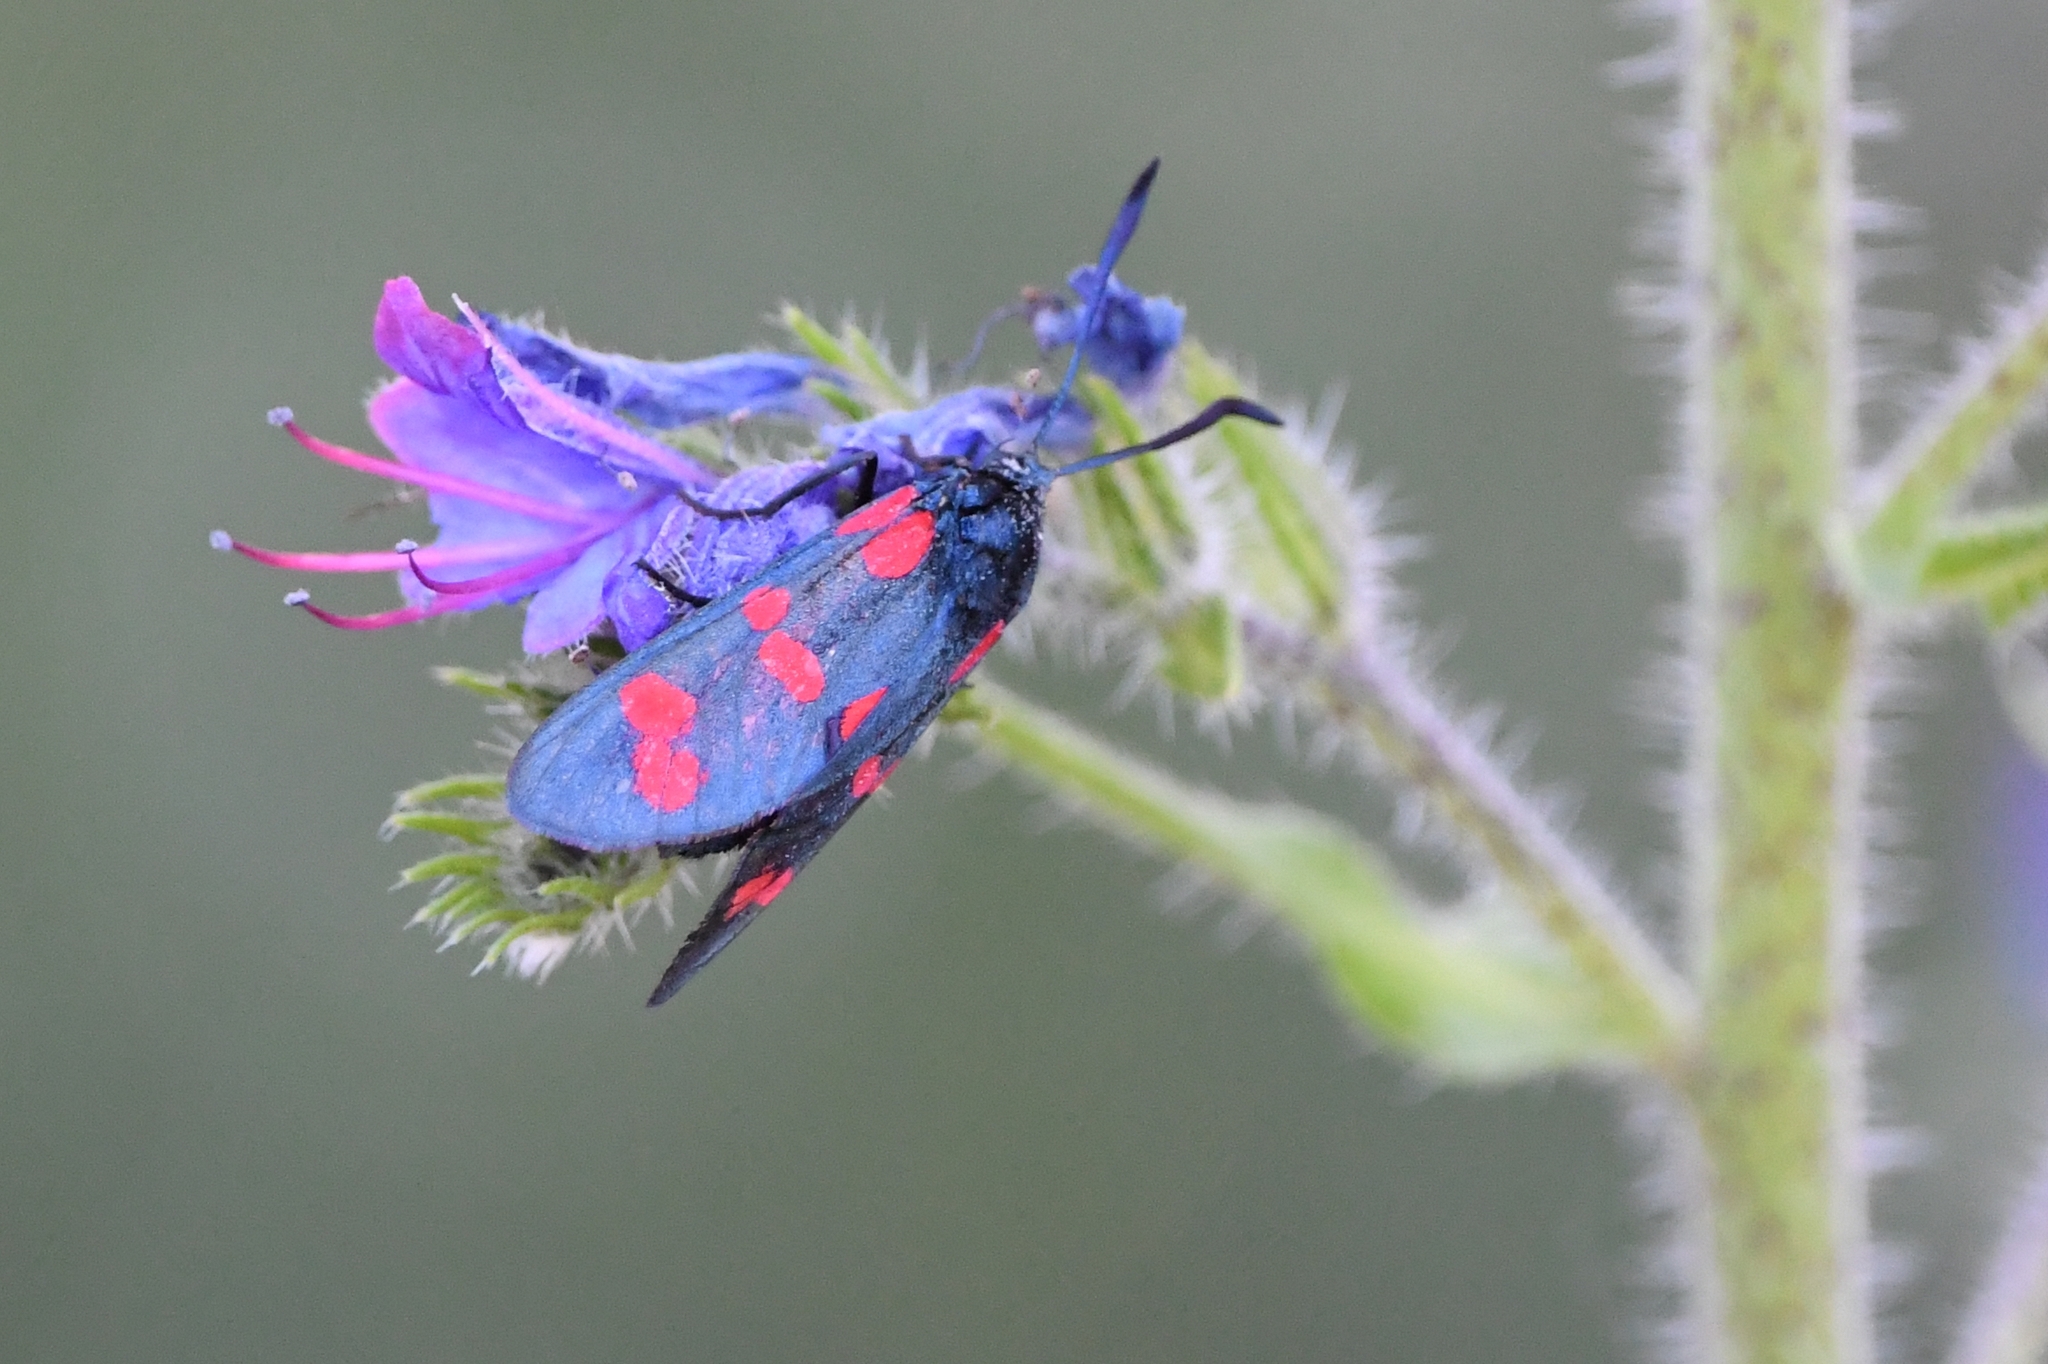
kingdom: Animalia
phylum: Arthropoda
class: Insecta
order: Lepidoptera
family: Zygaenidae
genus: Zygaena
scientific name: Zygaena filipendulae
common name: Six-spot burnet
